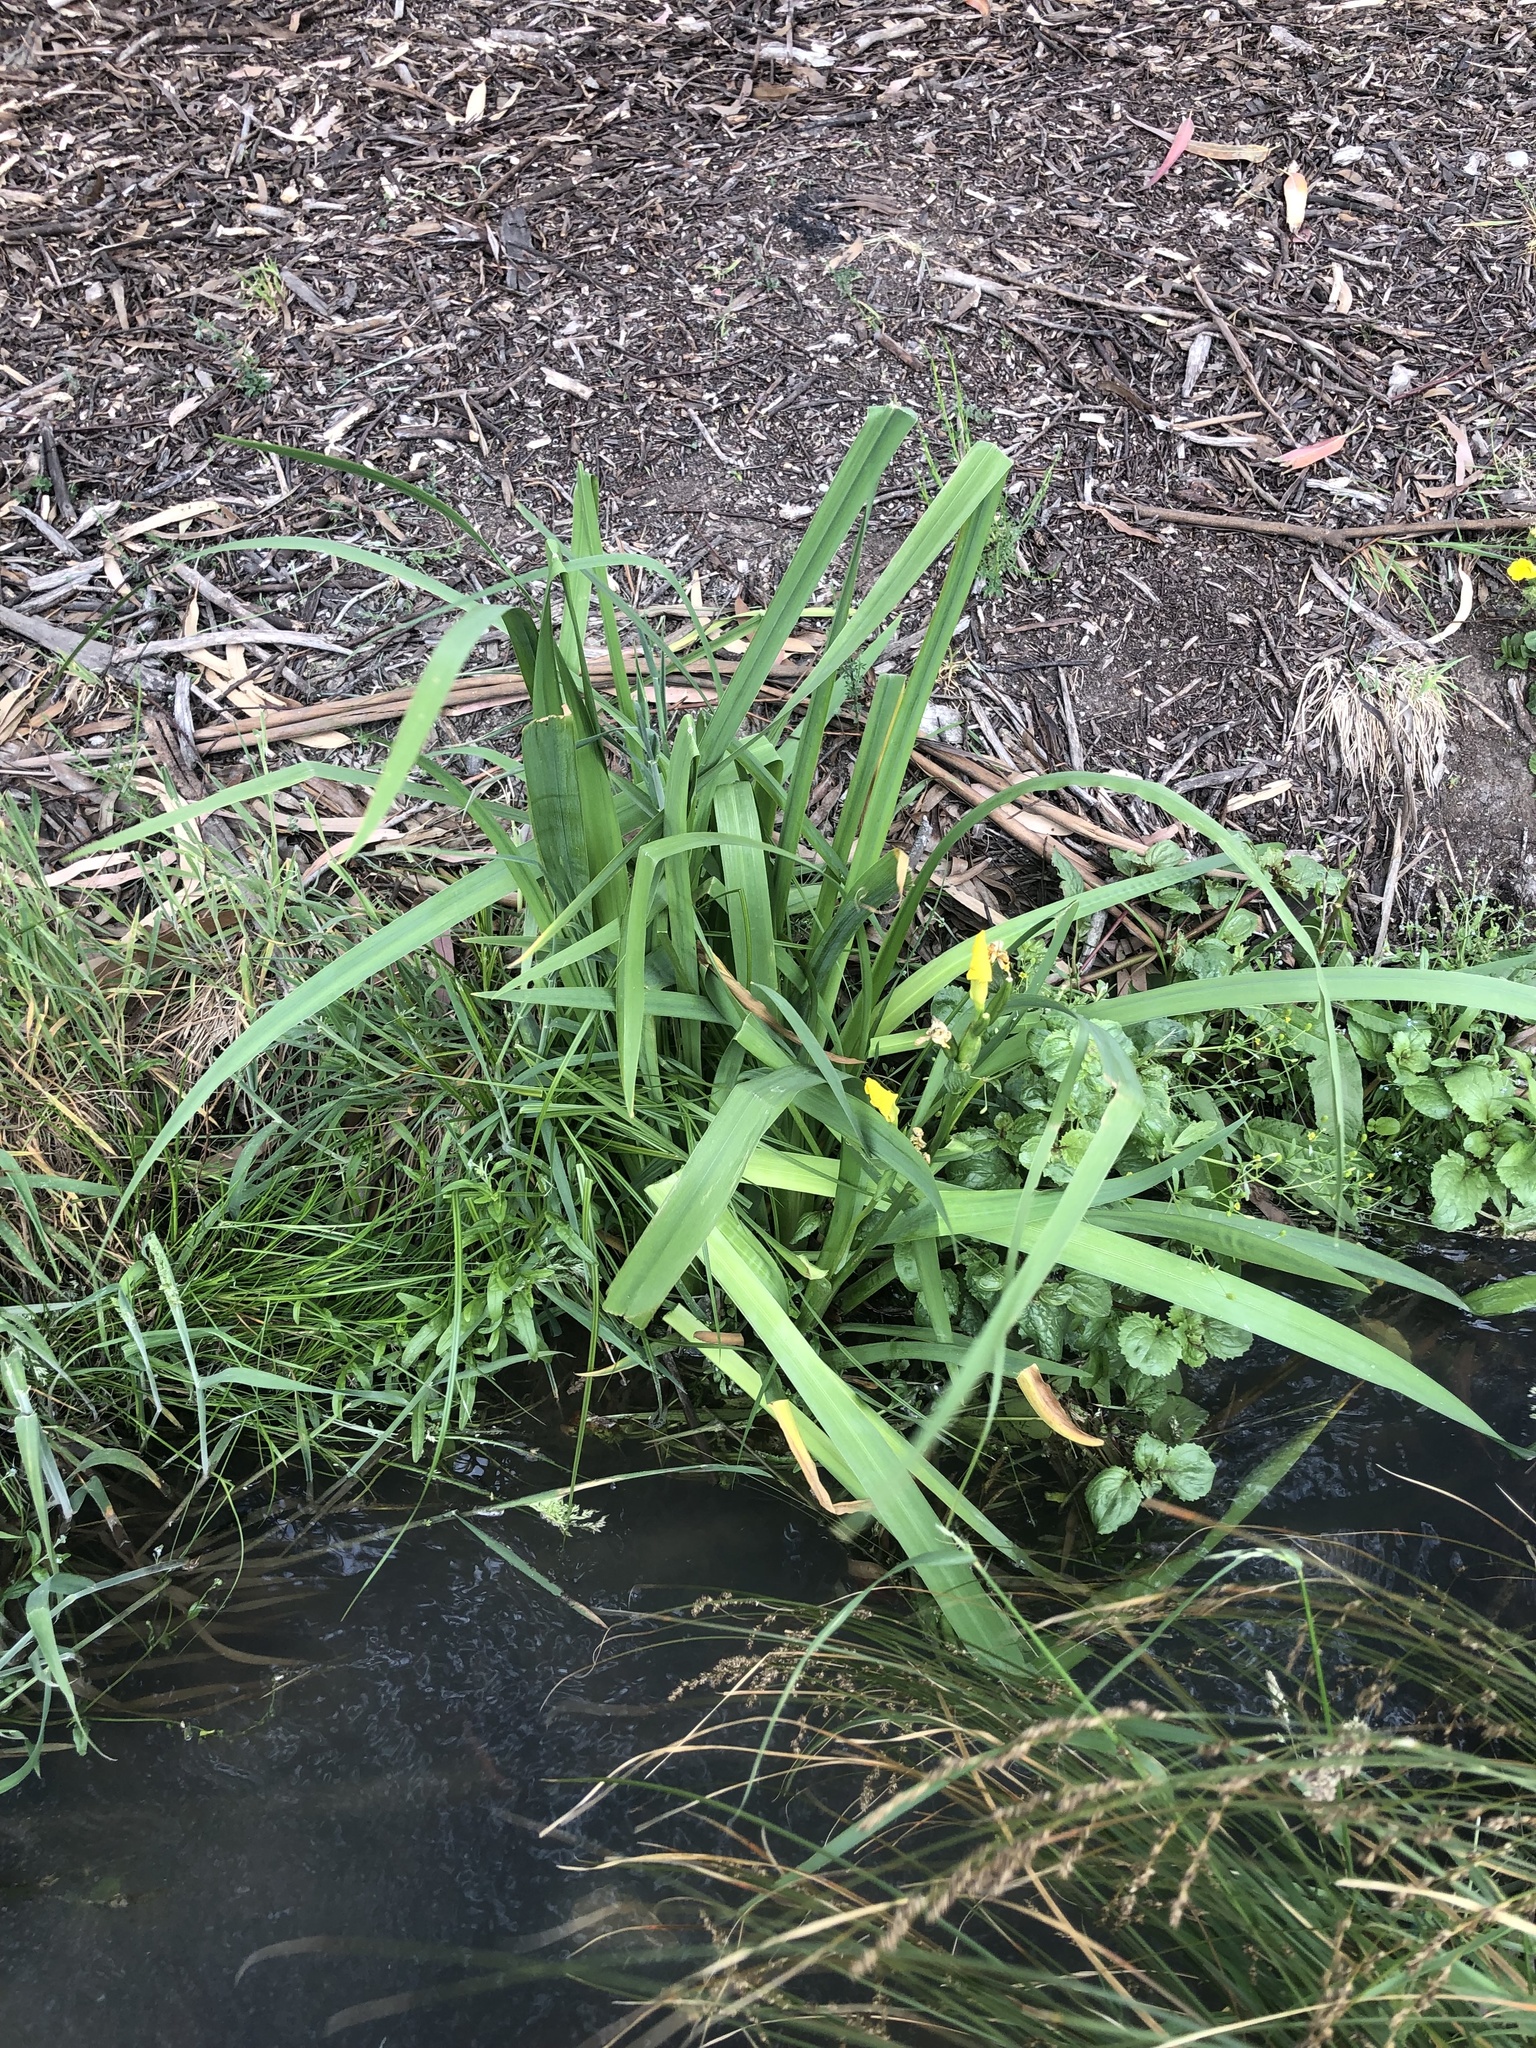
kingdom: Plantae
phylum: Tracheophyta
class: Liliopsida
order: Asparagales
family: Iridaceae
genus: Iris
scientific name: Iris pseudacorus
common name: Yellow flag
